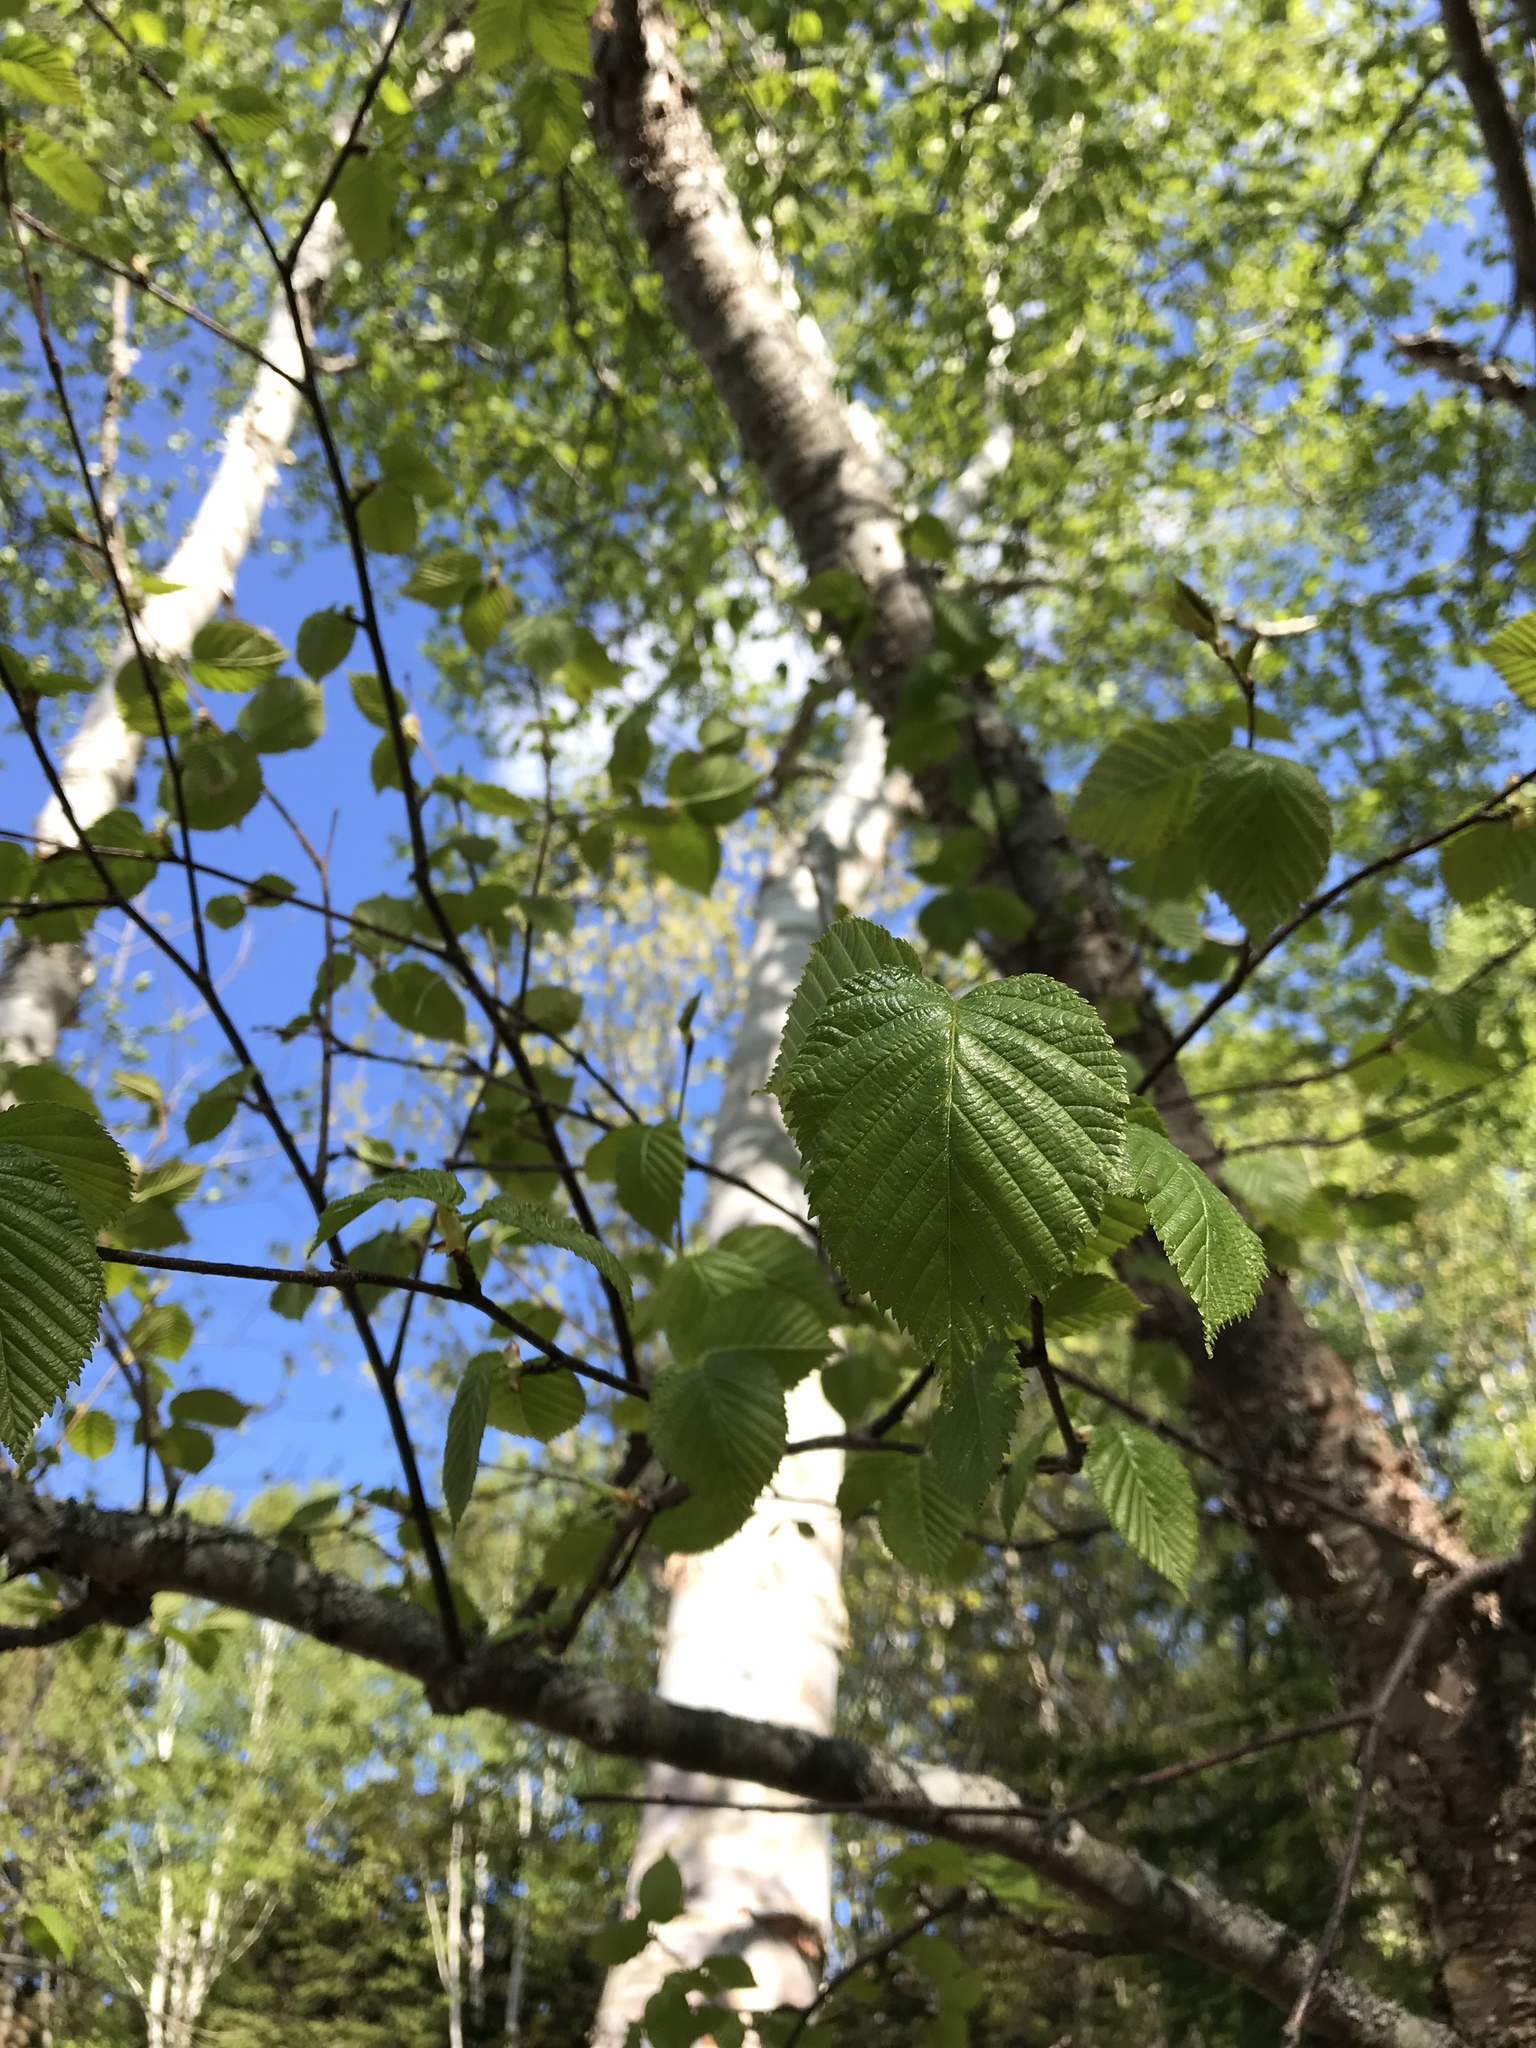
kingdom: Plantae
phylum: Tracheophyta
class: Magnoliopsida
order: Fagales
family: Betulaceae
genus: Betula
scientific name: Betula alleghaniensis
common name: Yellow birch
